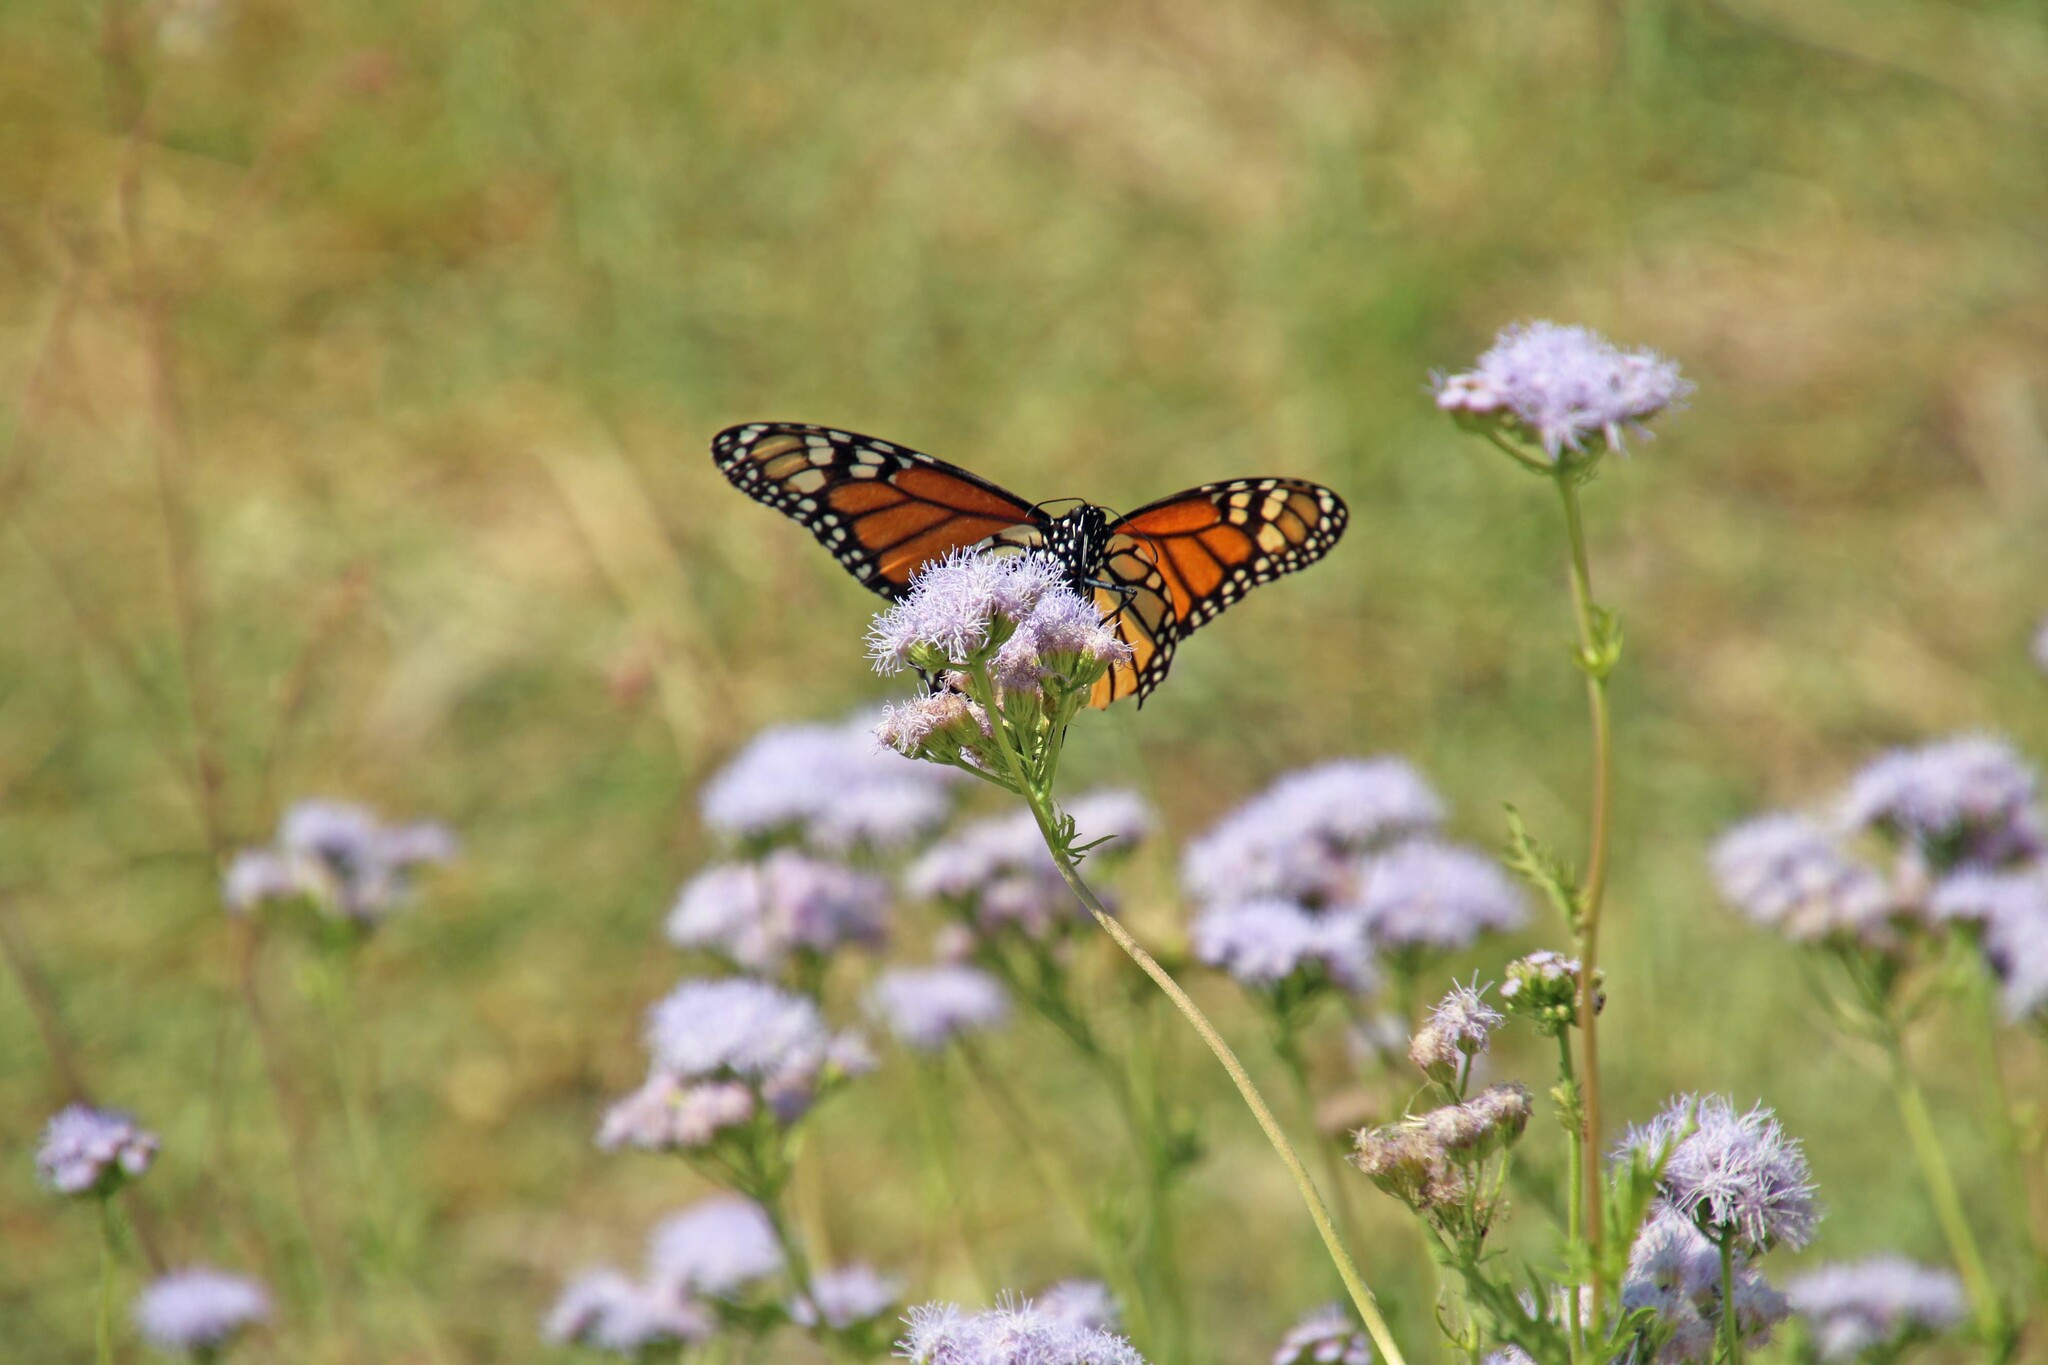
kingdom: Animalia
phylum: Arthropoda
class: Insecta
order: Lepidoptera
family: Nymphalidae
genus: Danaus
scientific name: Danaus plexippus
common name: Monarch
